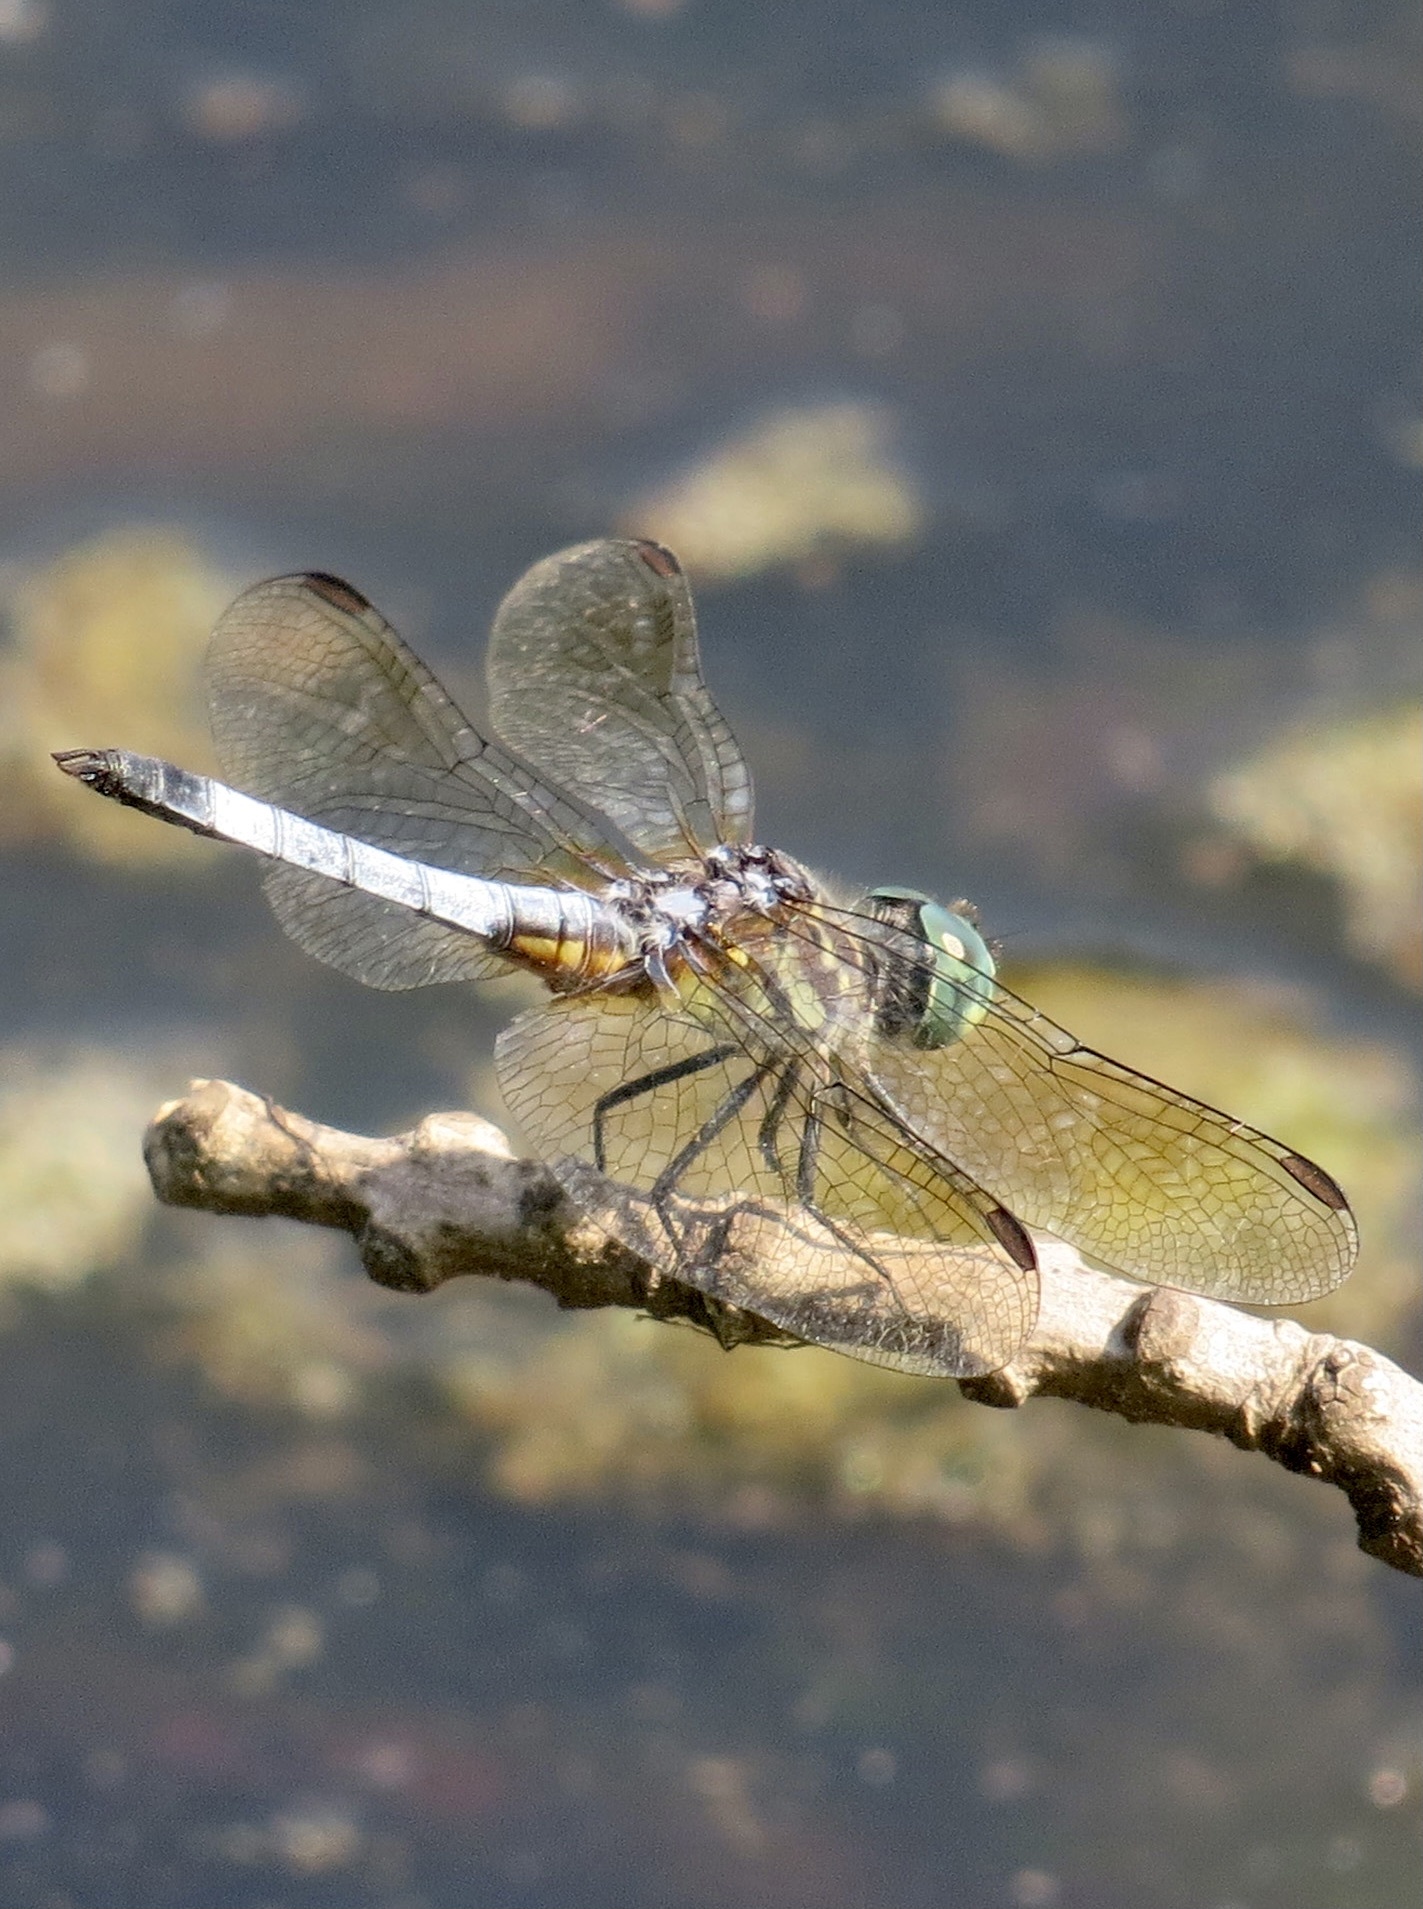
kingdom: Animalia
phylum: Arthropoda
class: Insecta
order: Odonata
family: Libellulidae
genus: Pachydiplax
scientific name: Pachydiplax longipennis
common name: Blue dasher
